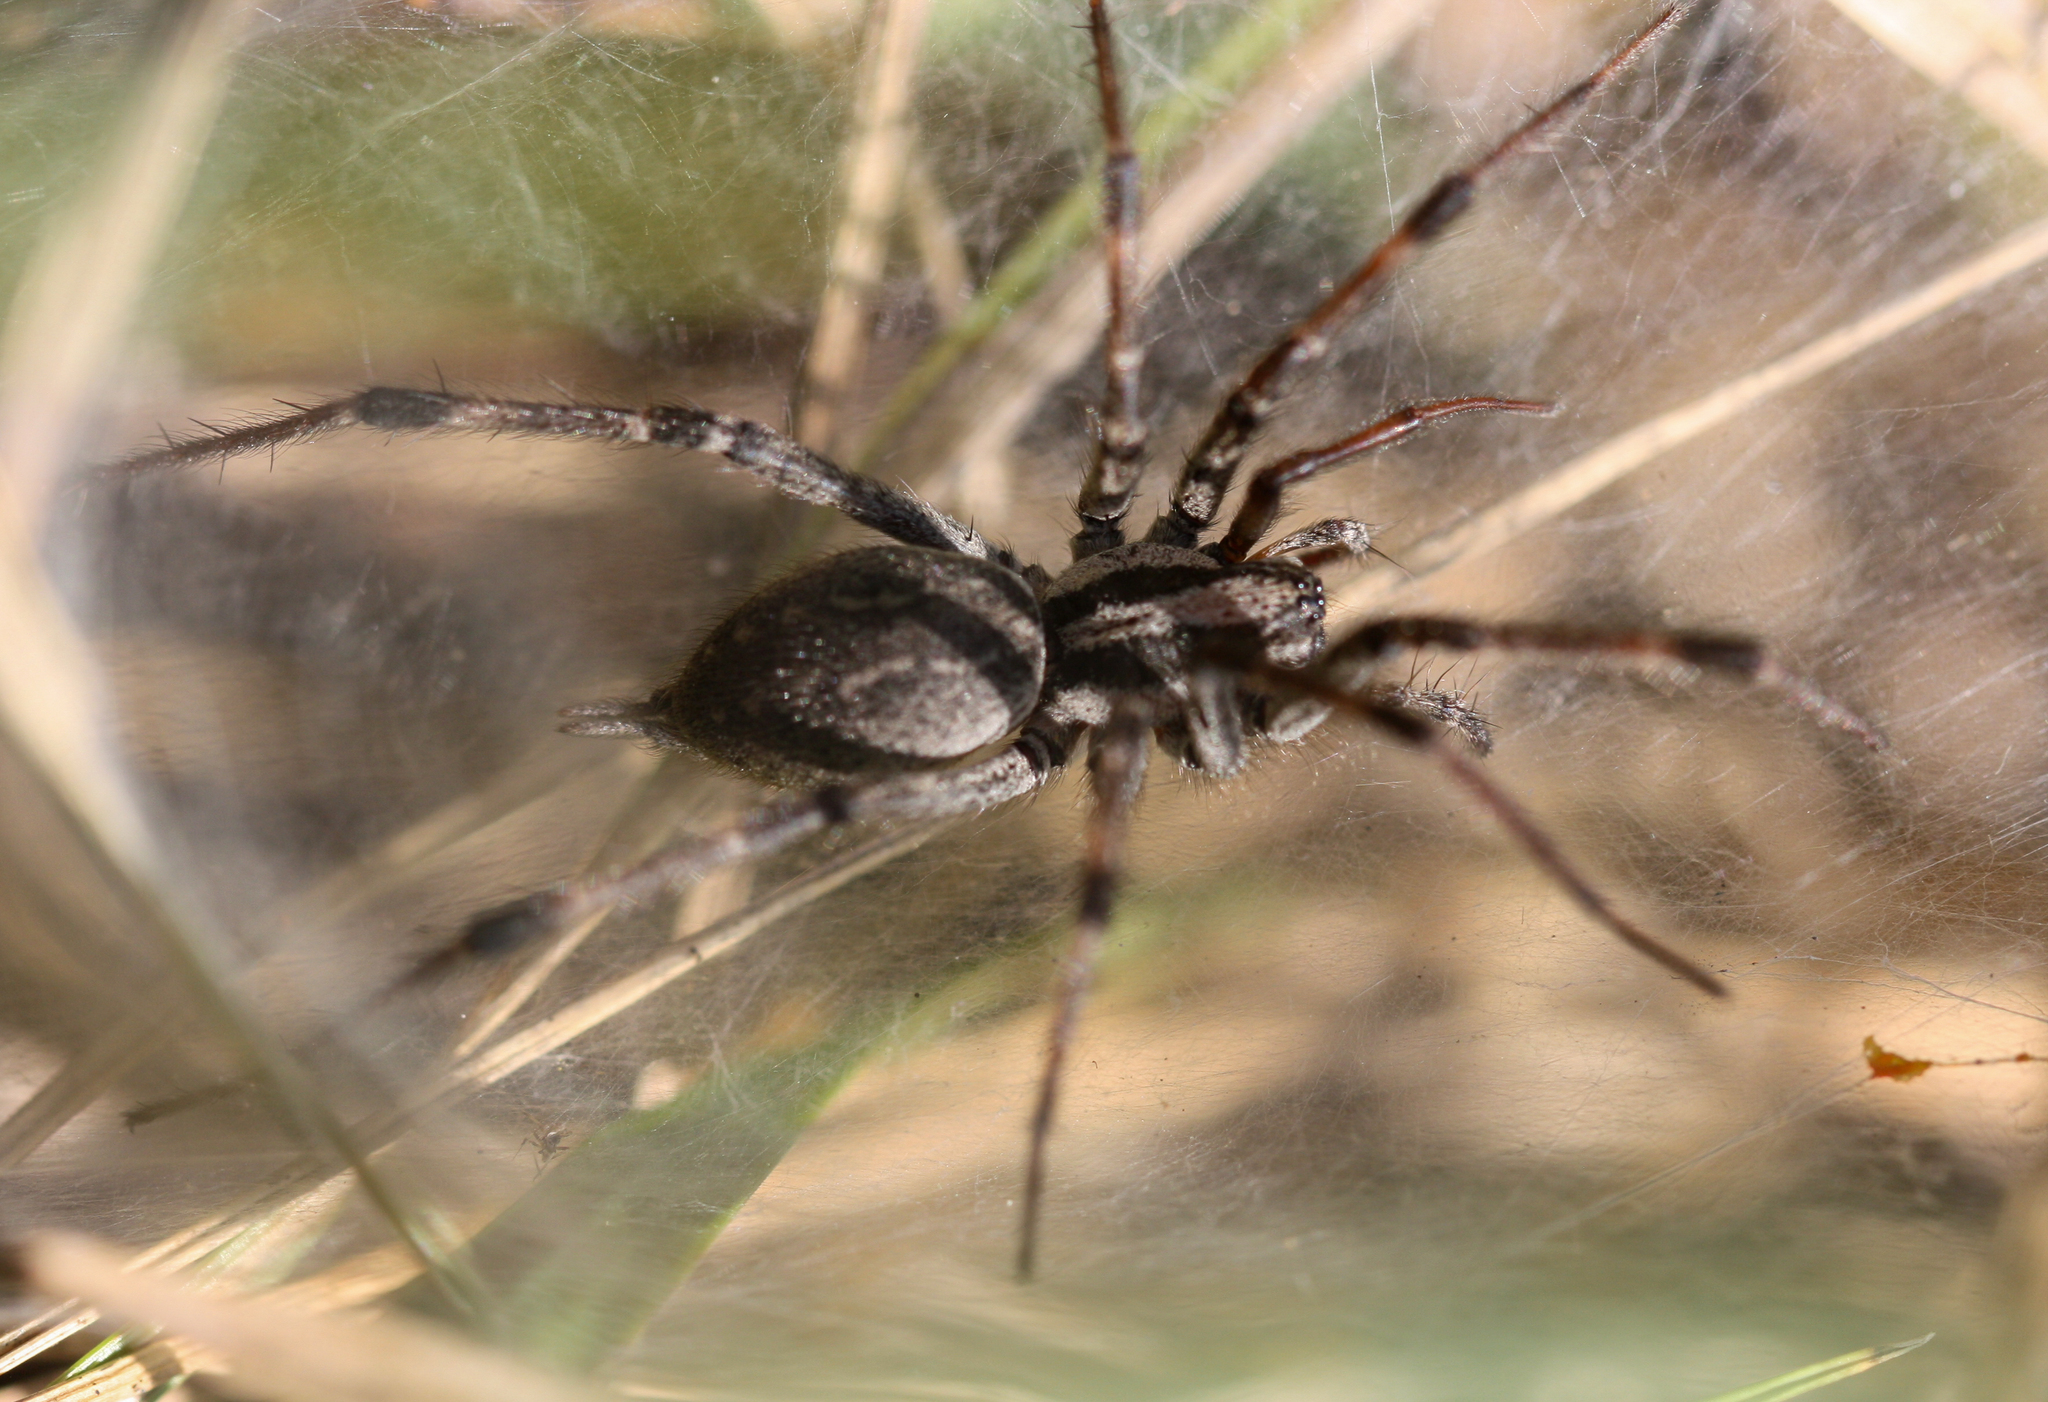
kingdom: Animalia
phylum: Arthropoda
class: Arachnida
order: Araneae
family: Agelenidae
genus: Agelenopsis
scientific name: Agelenopsis
